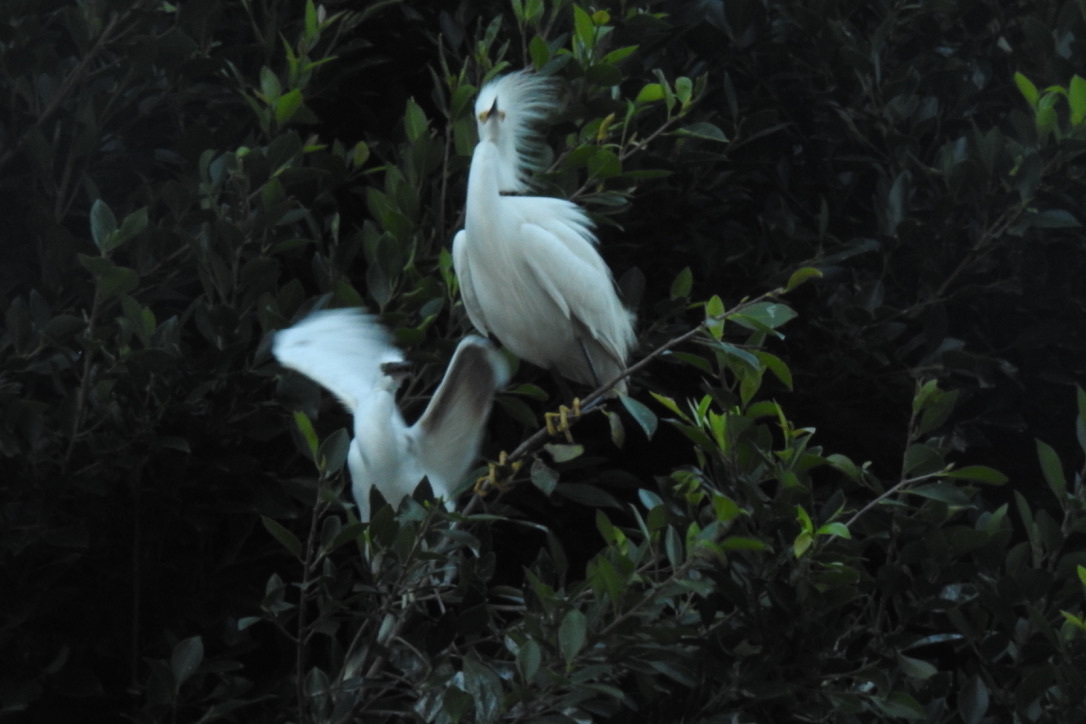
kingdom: Animalia
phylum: Chordata
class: Aves
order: Pelecaniformes
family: Ardeidae
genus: Egretta
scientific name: Egretta thula
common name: Snowy egret
